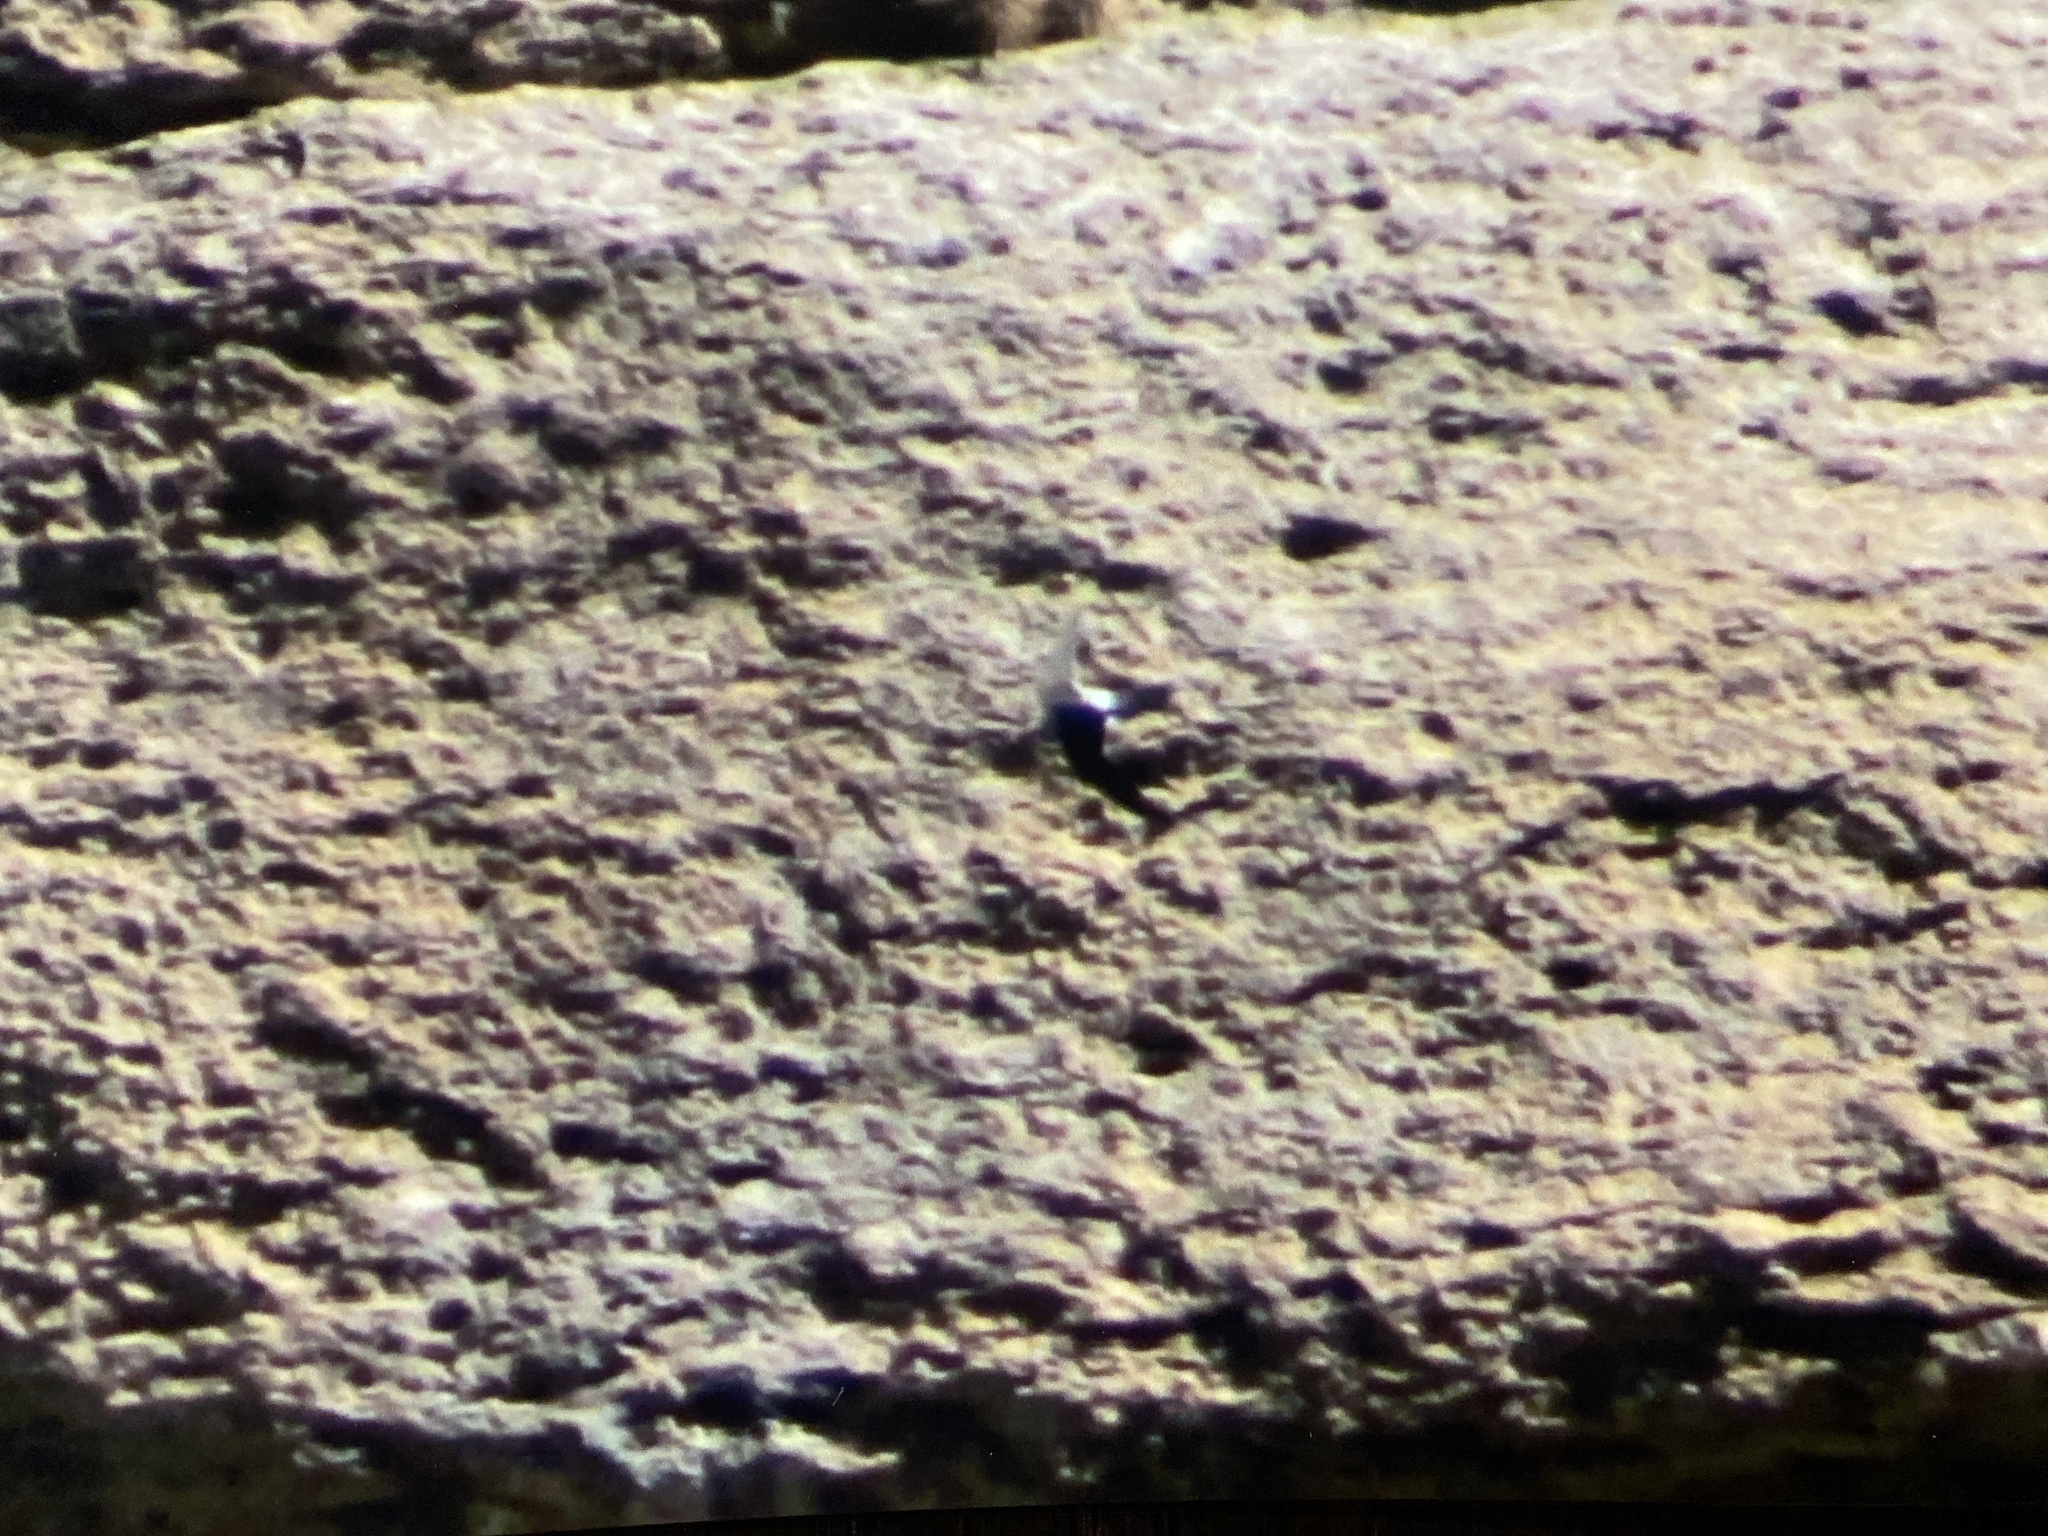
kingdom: Animalia
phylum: Chordata
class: Aves
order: Apodiformes
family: Apodidae
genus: Aeronautes
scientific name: Aeronautes saxatalis
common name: White-throated swift
